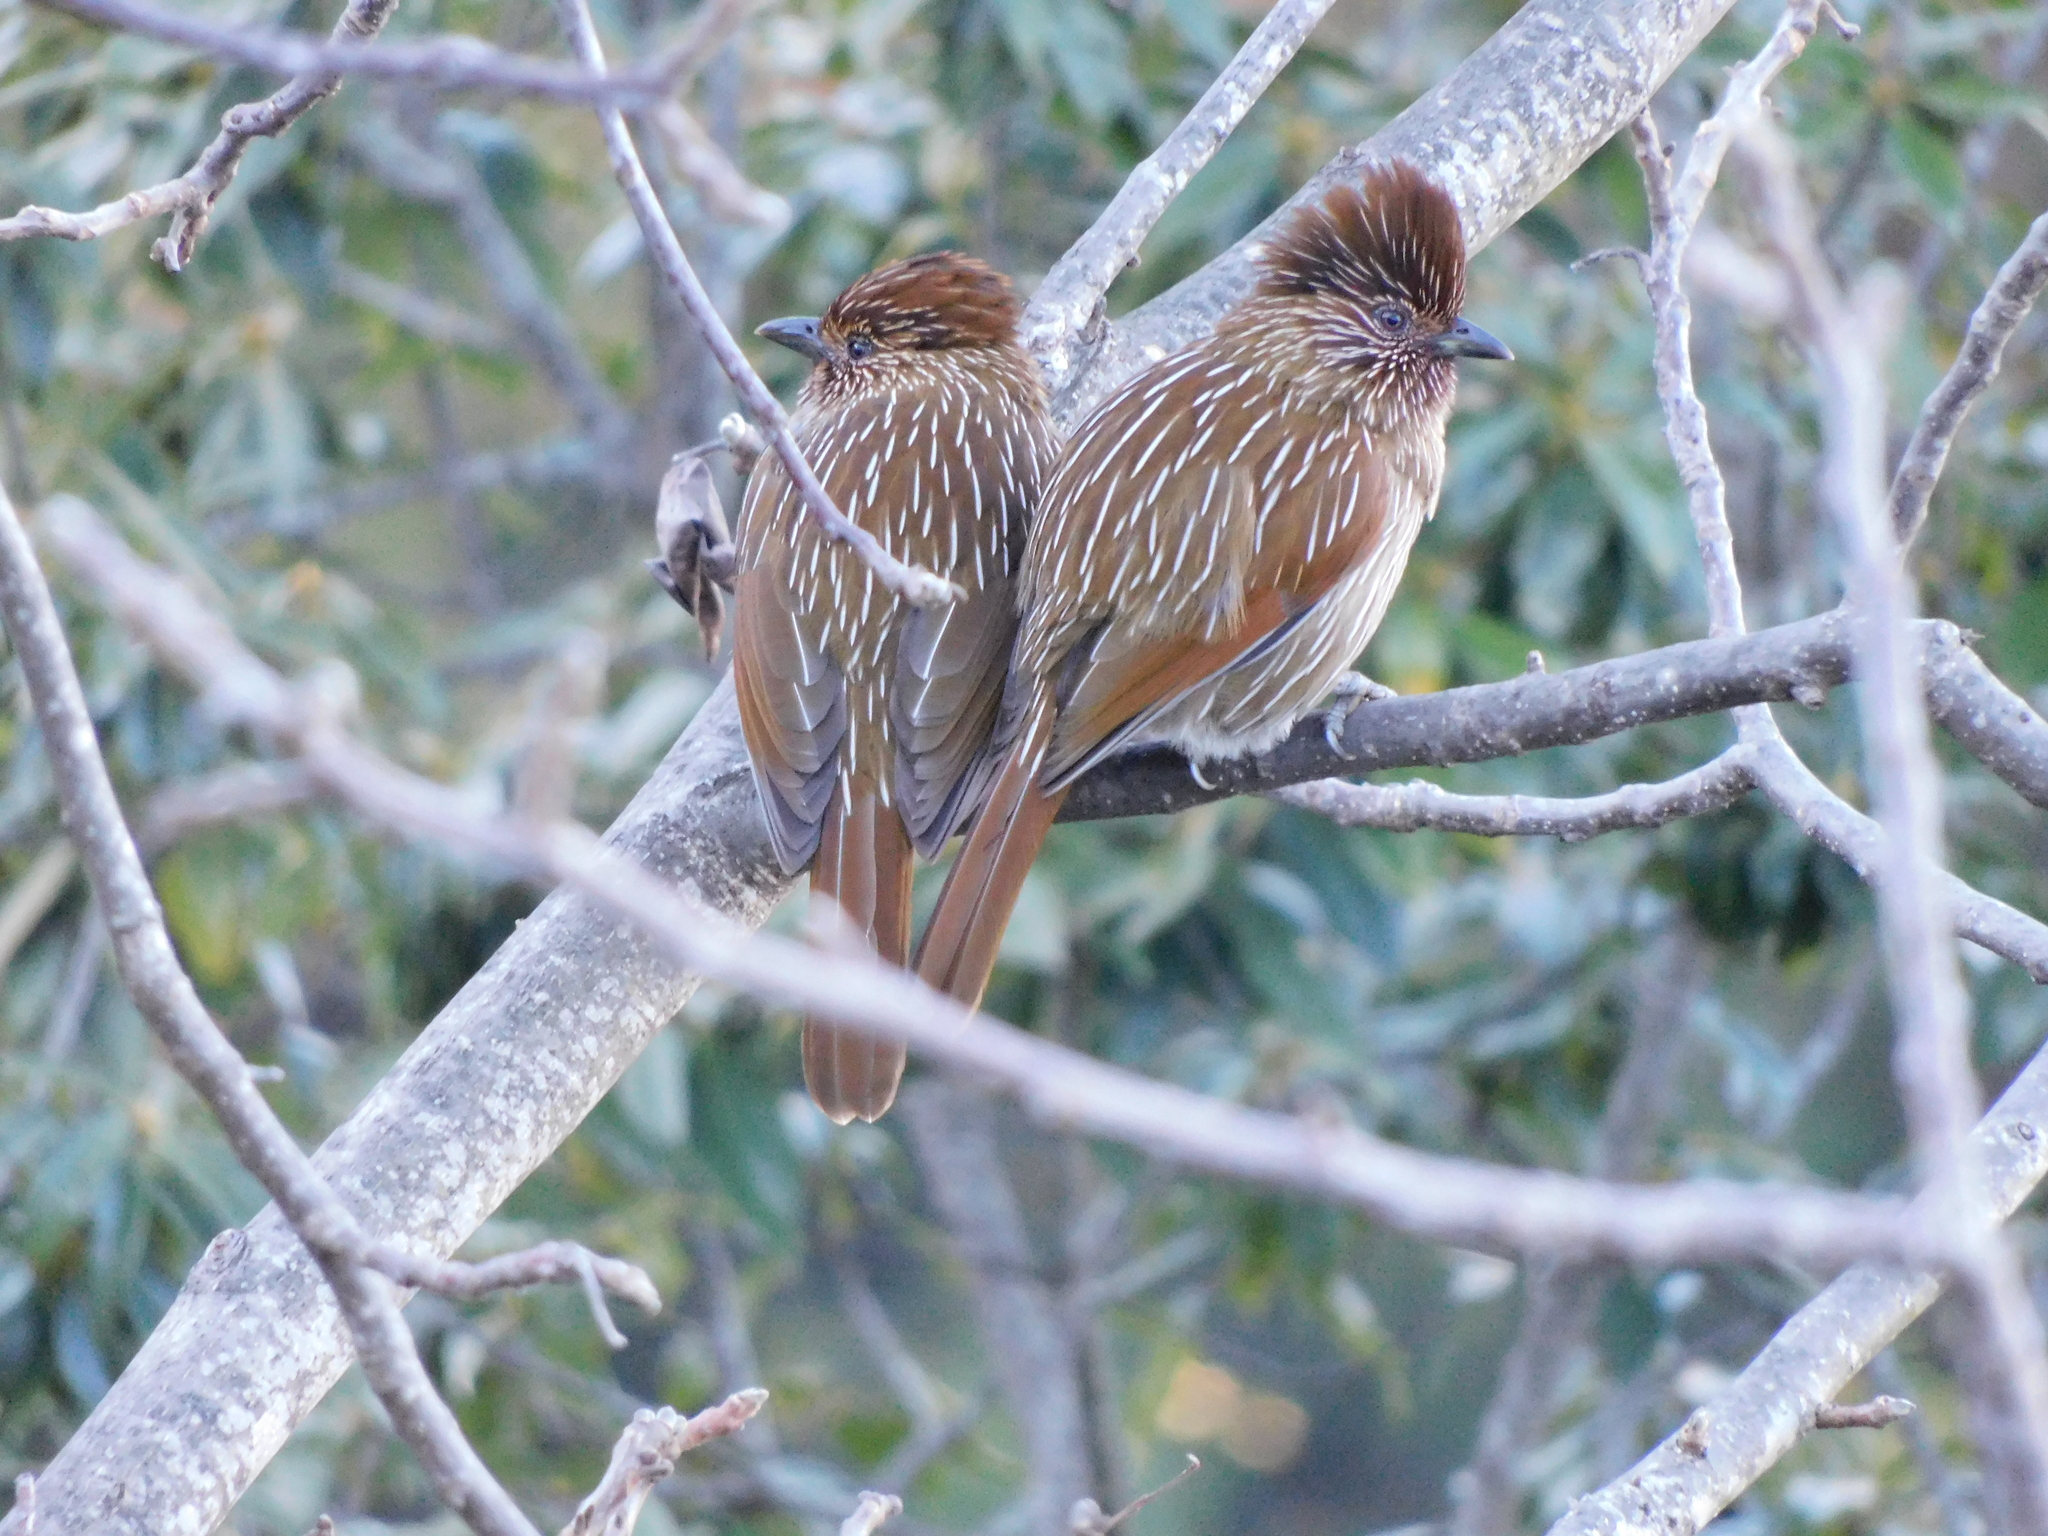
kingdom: Animalia
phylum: Chordata
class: Aves
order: Passeriformes
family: Leiothrichidae
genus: Garrulax
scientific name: Garrulax striatus
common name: Striated laughingthrush
